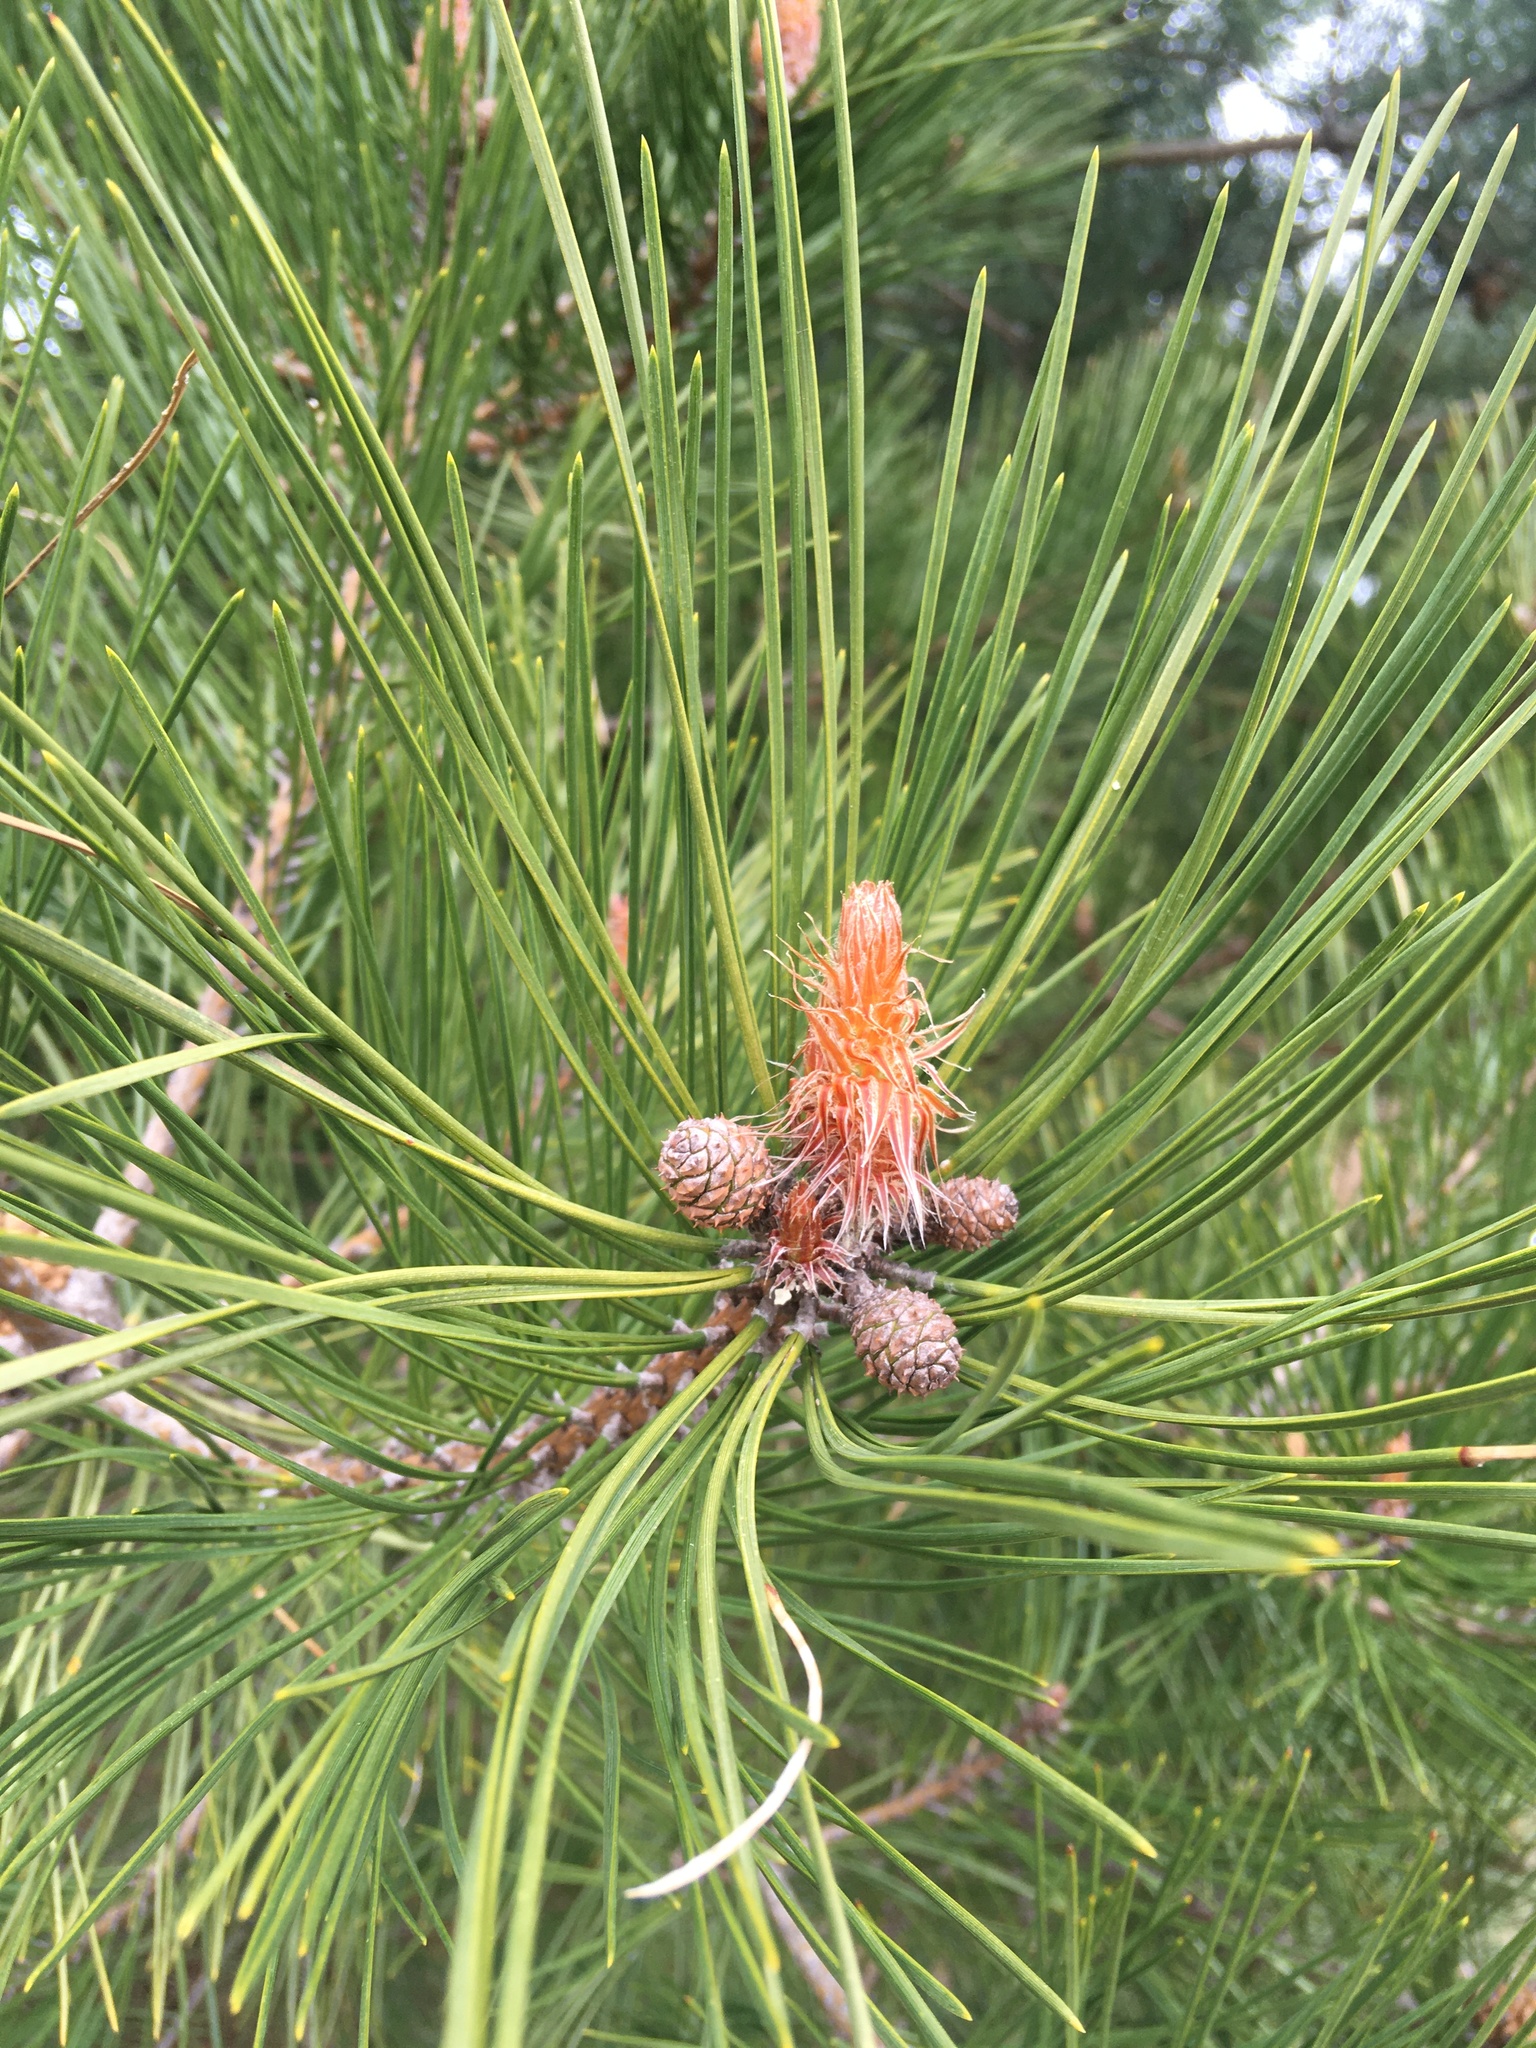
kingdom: Plantae
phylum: Tracheophyta
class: Pinopsida
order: Pinales
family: Pinaceae
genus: Pinus
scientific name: Pinus resinosa
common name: Norway pine
